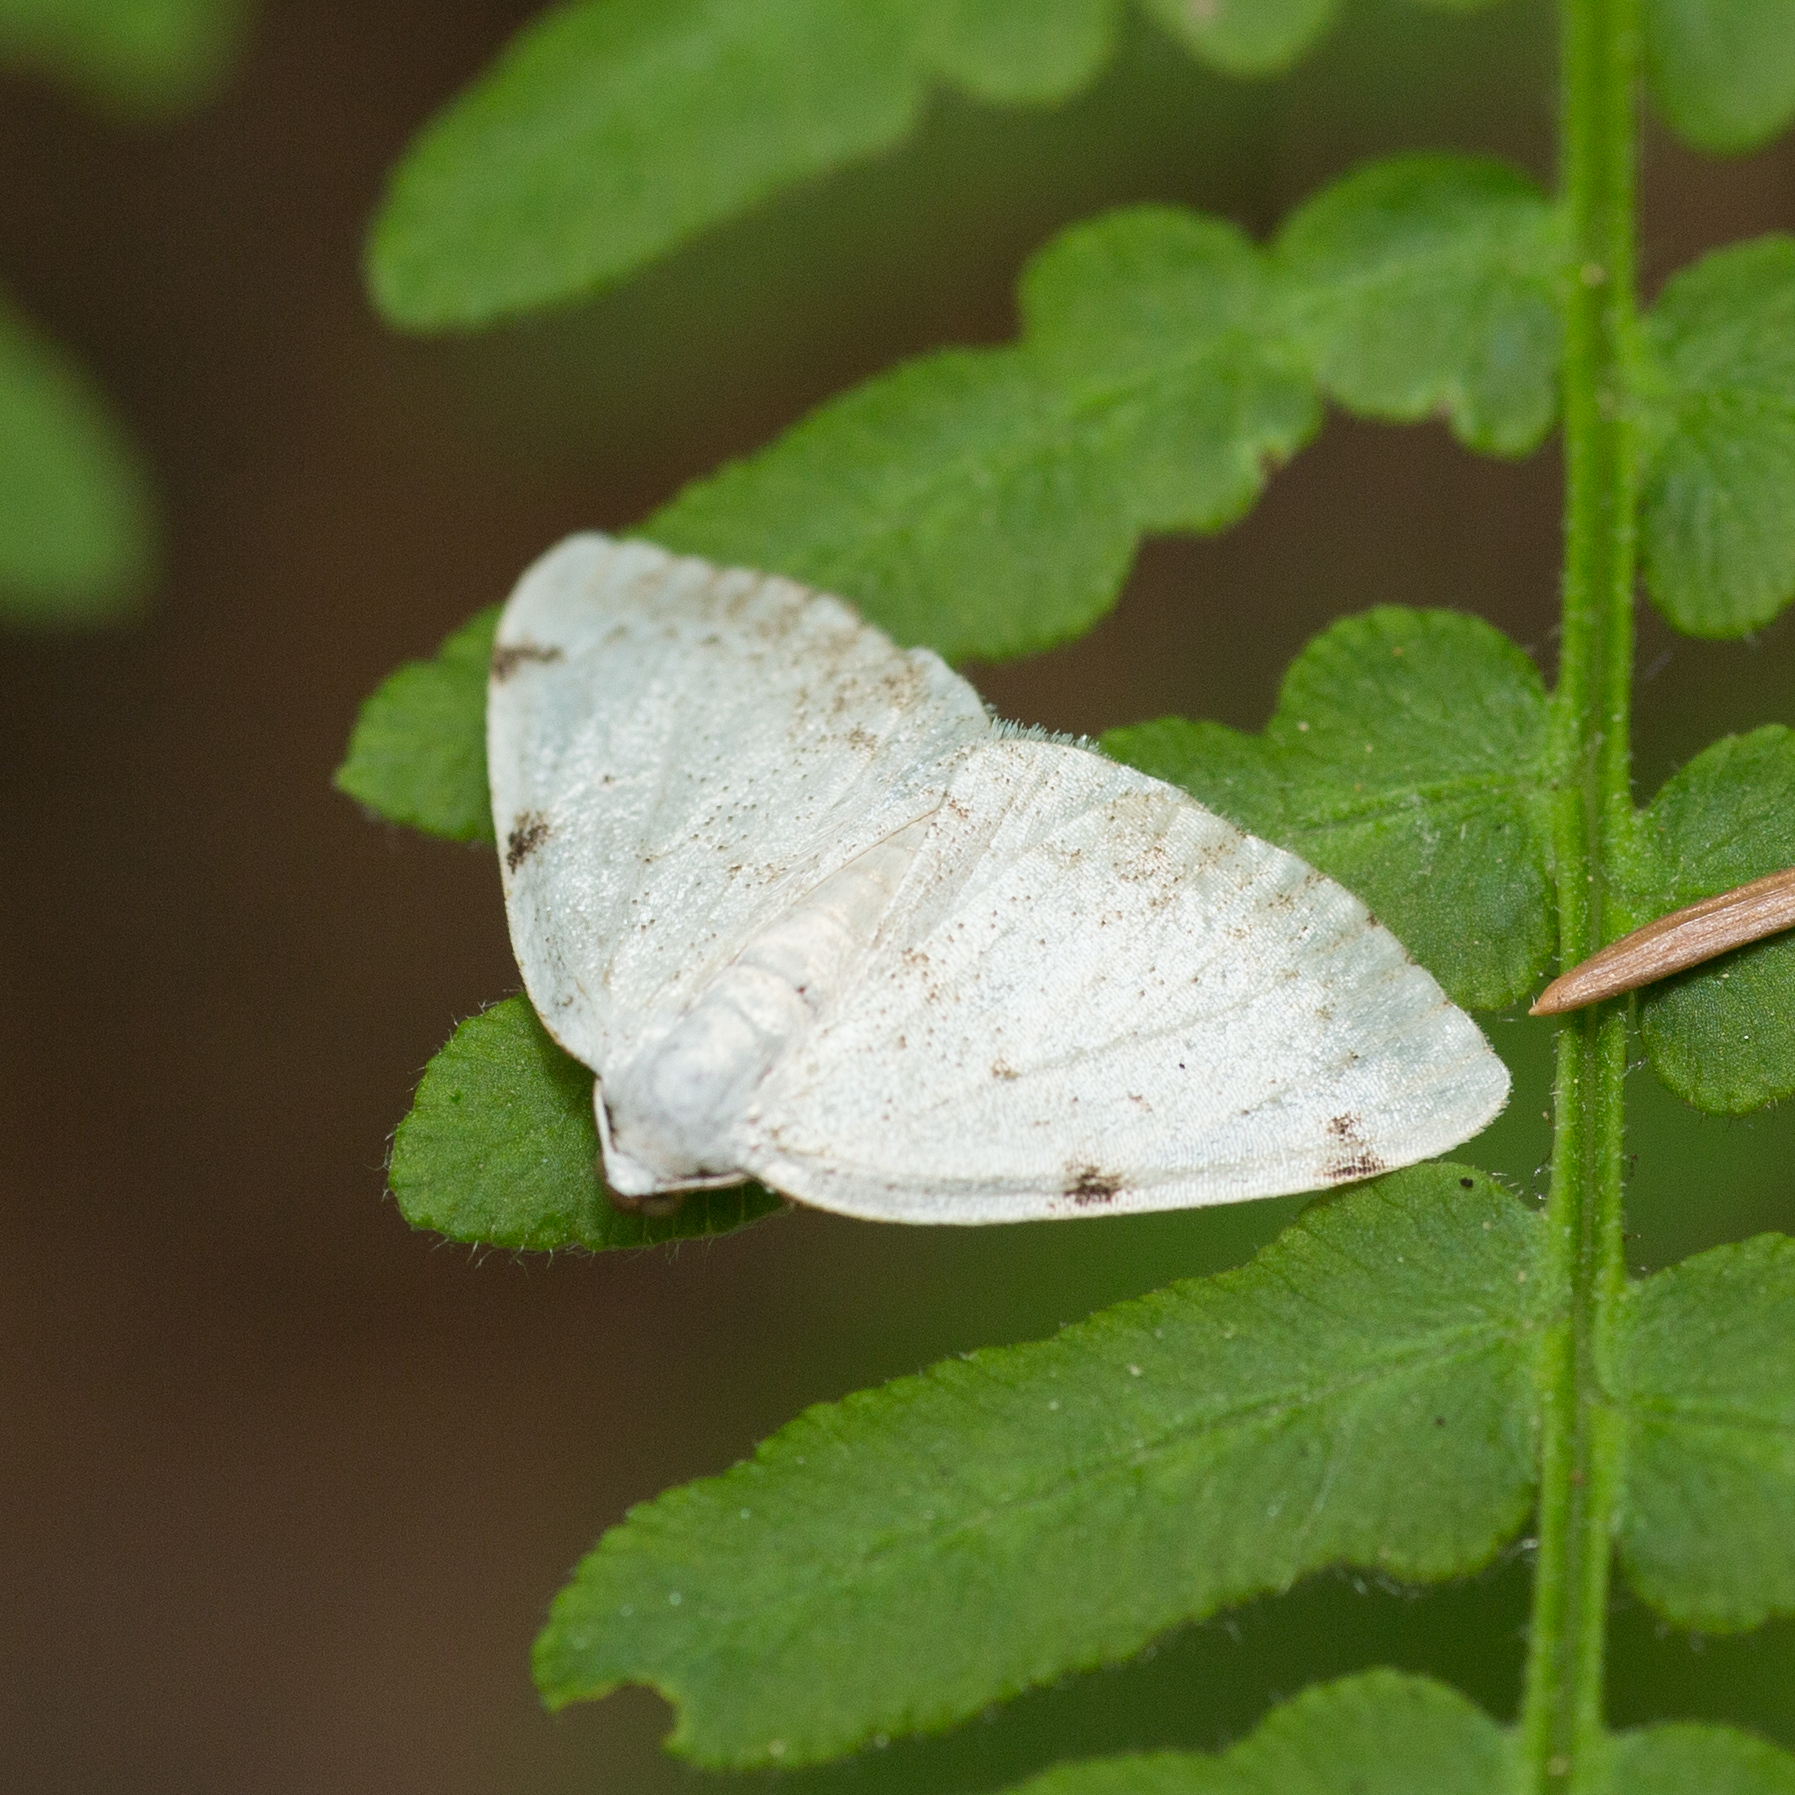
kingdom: Animalia
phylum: Arthropoda
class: Insecta
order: Lepidoptera
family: Geometridae
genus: Lomographa
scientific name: Lomographa bimaculata
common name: White-pinion spotted
